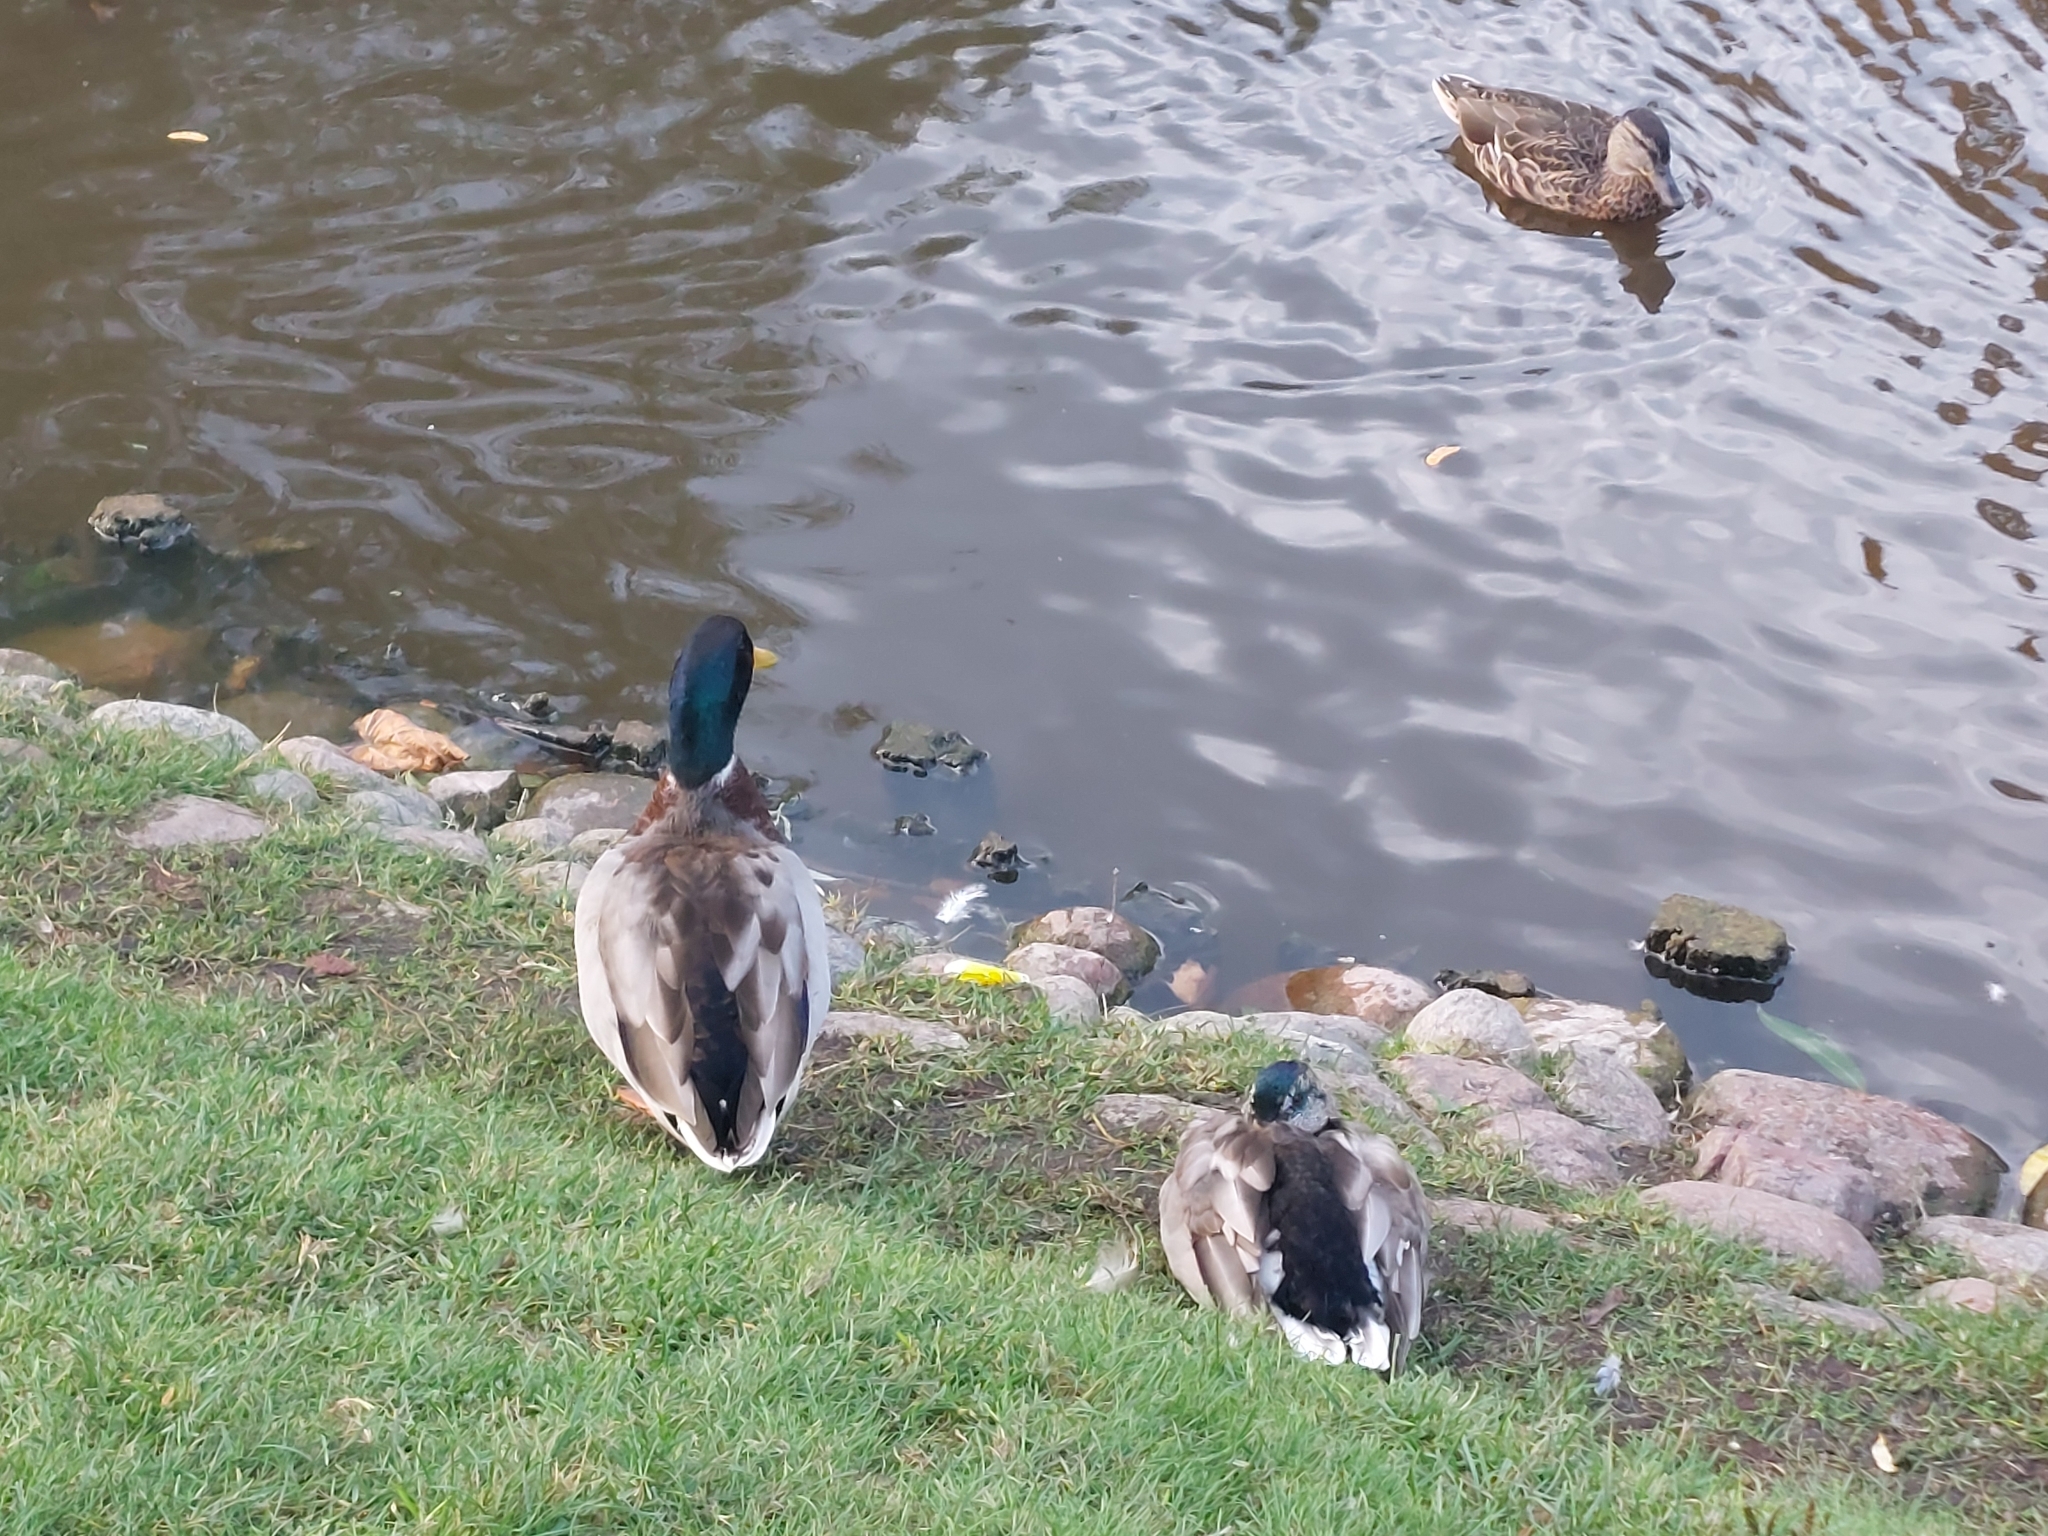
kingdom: Animalia
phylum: Chordata
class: Aves
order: Anseriformes
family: Anatidae
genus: Anas
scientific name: Anas platyrhynchos
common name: Mallard
